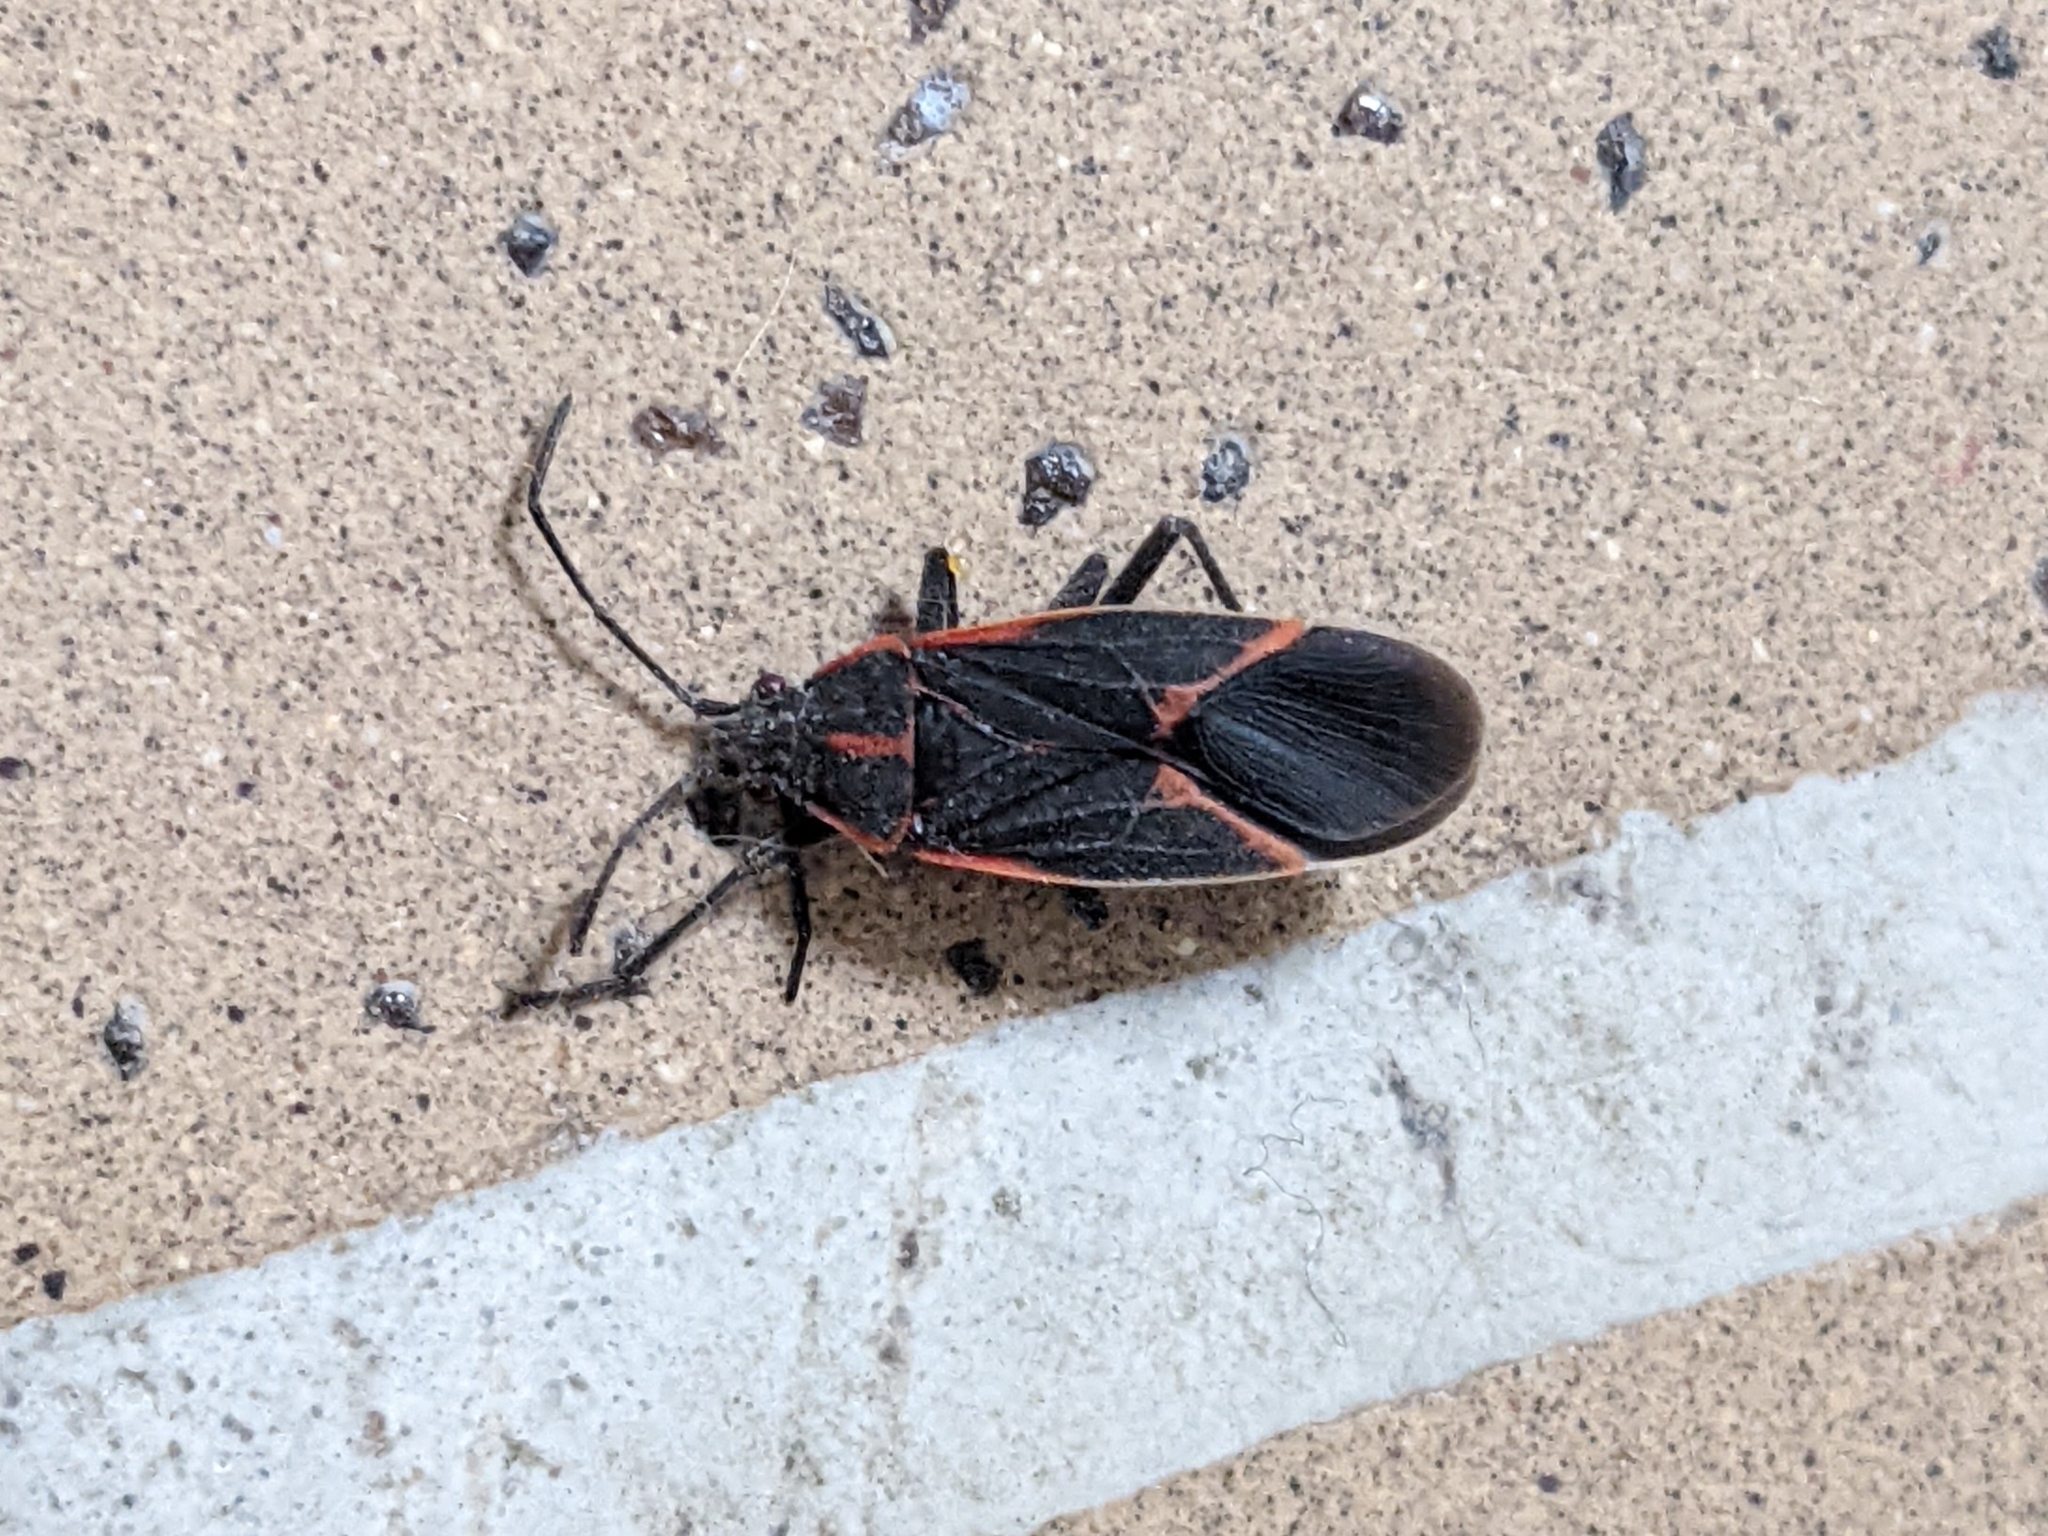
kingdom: Animalia
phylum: Arthropoda
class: Insecta
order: Hemiptera
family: Rhopalidae
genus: Boisea
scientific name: Boisea trivittata
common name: Boxelder bug
